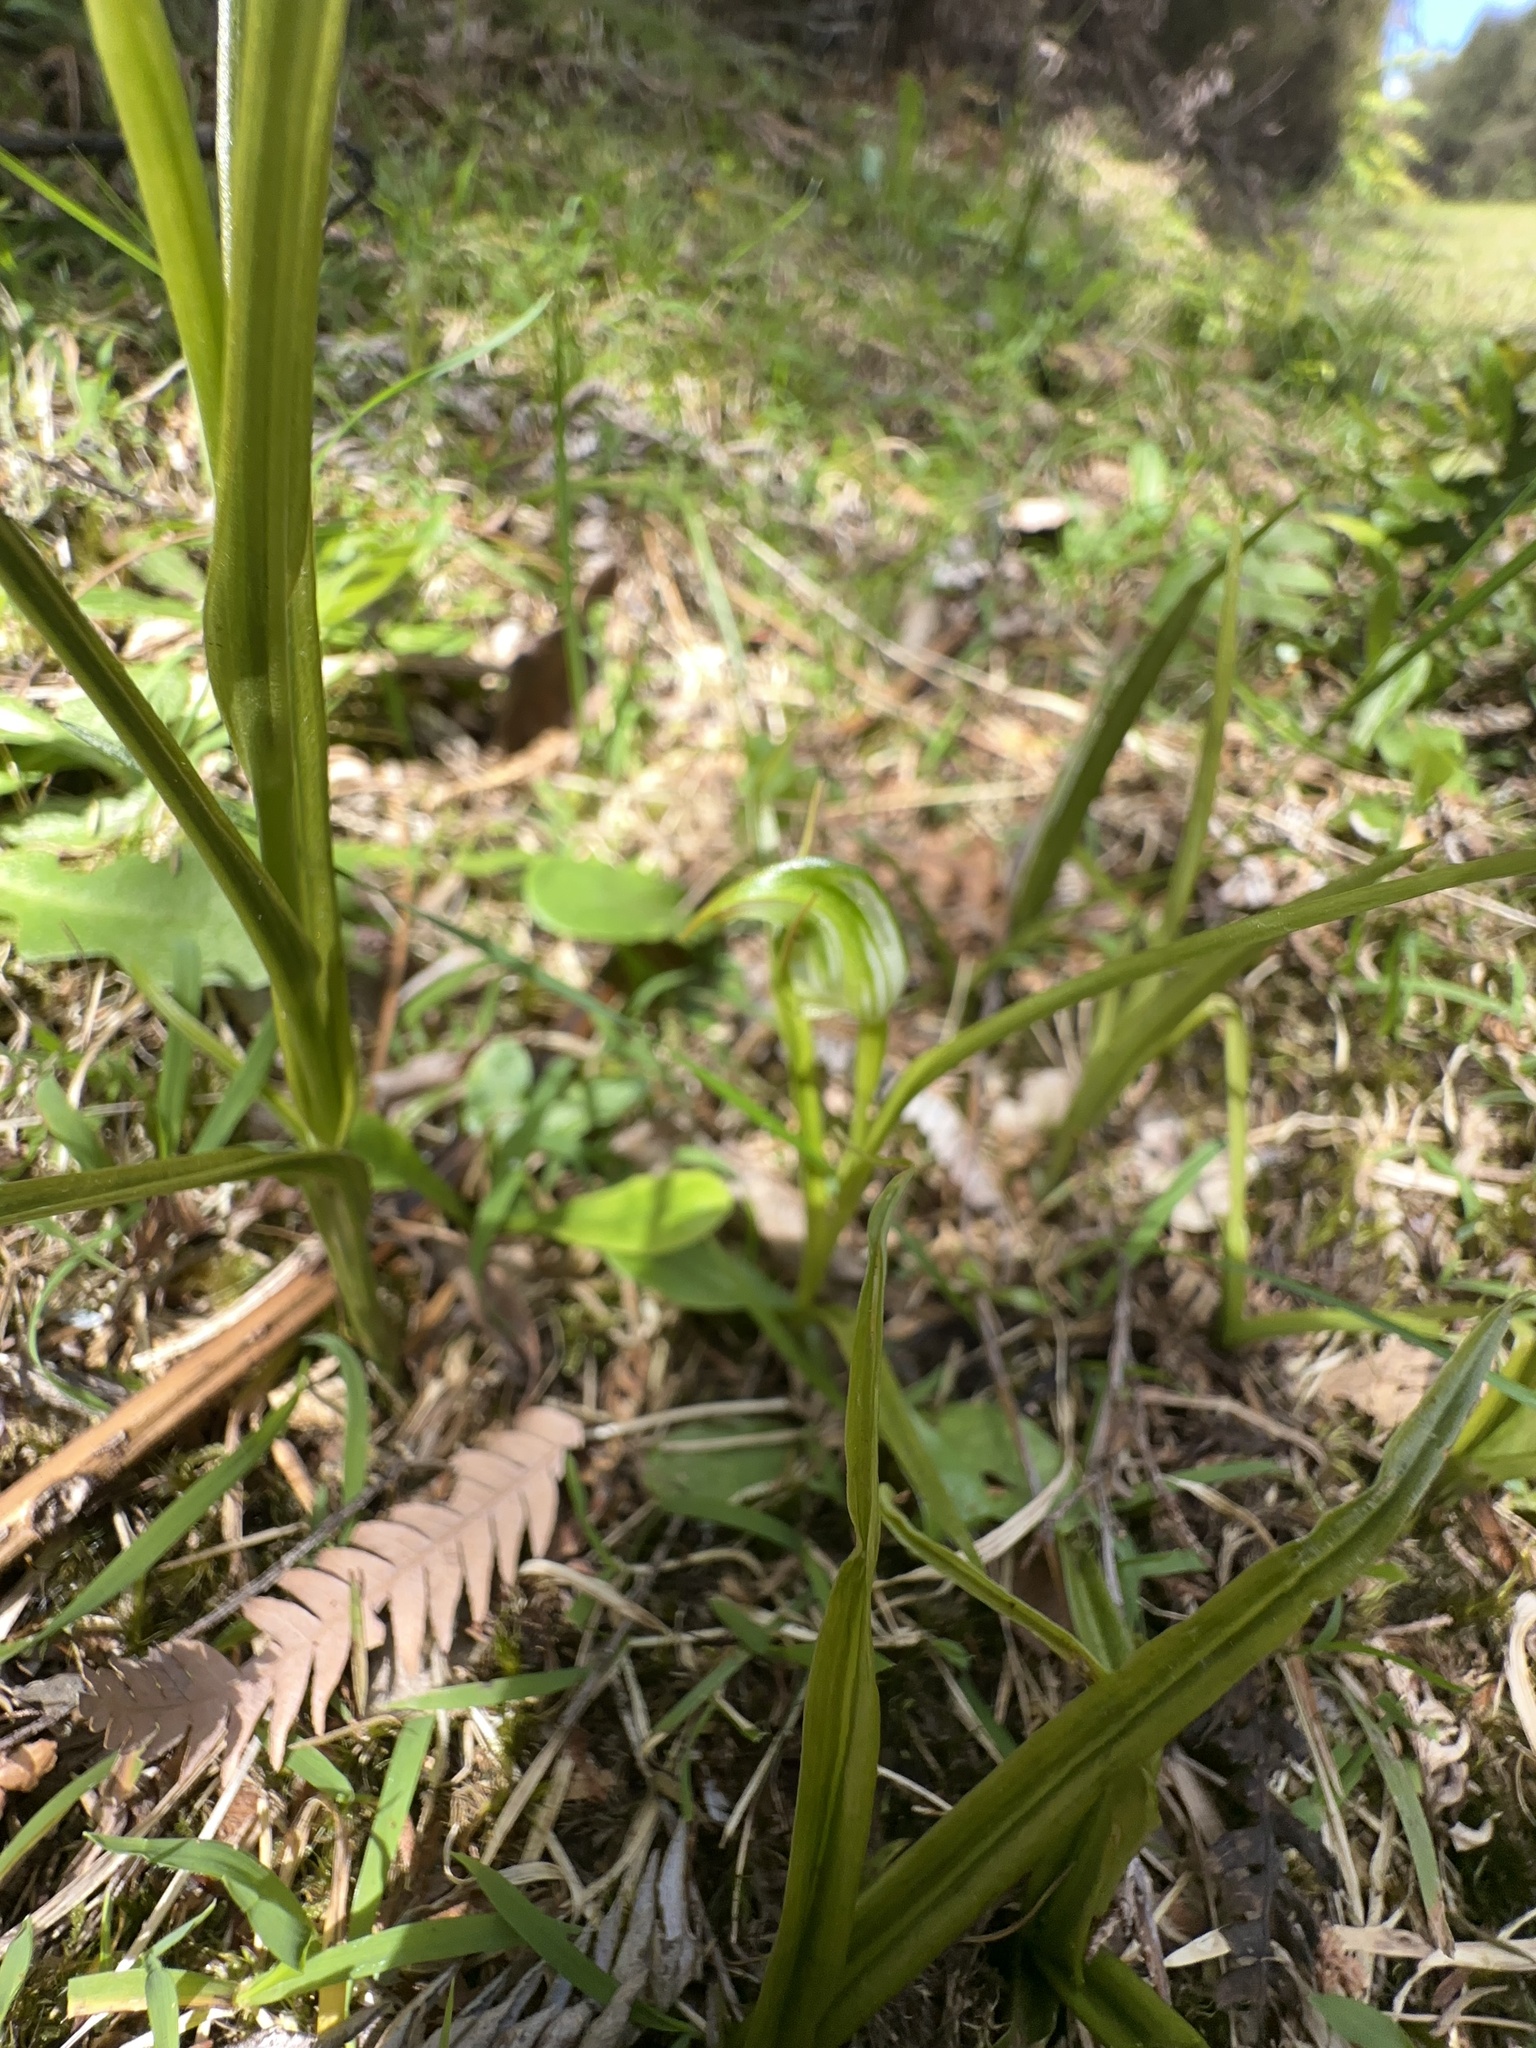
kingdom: Plantae
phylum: Tracheophyta
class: Liliopsida
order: Asparagales
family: Orchidaceae
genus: Pterostylis
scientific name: Pterostylis graminea
